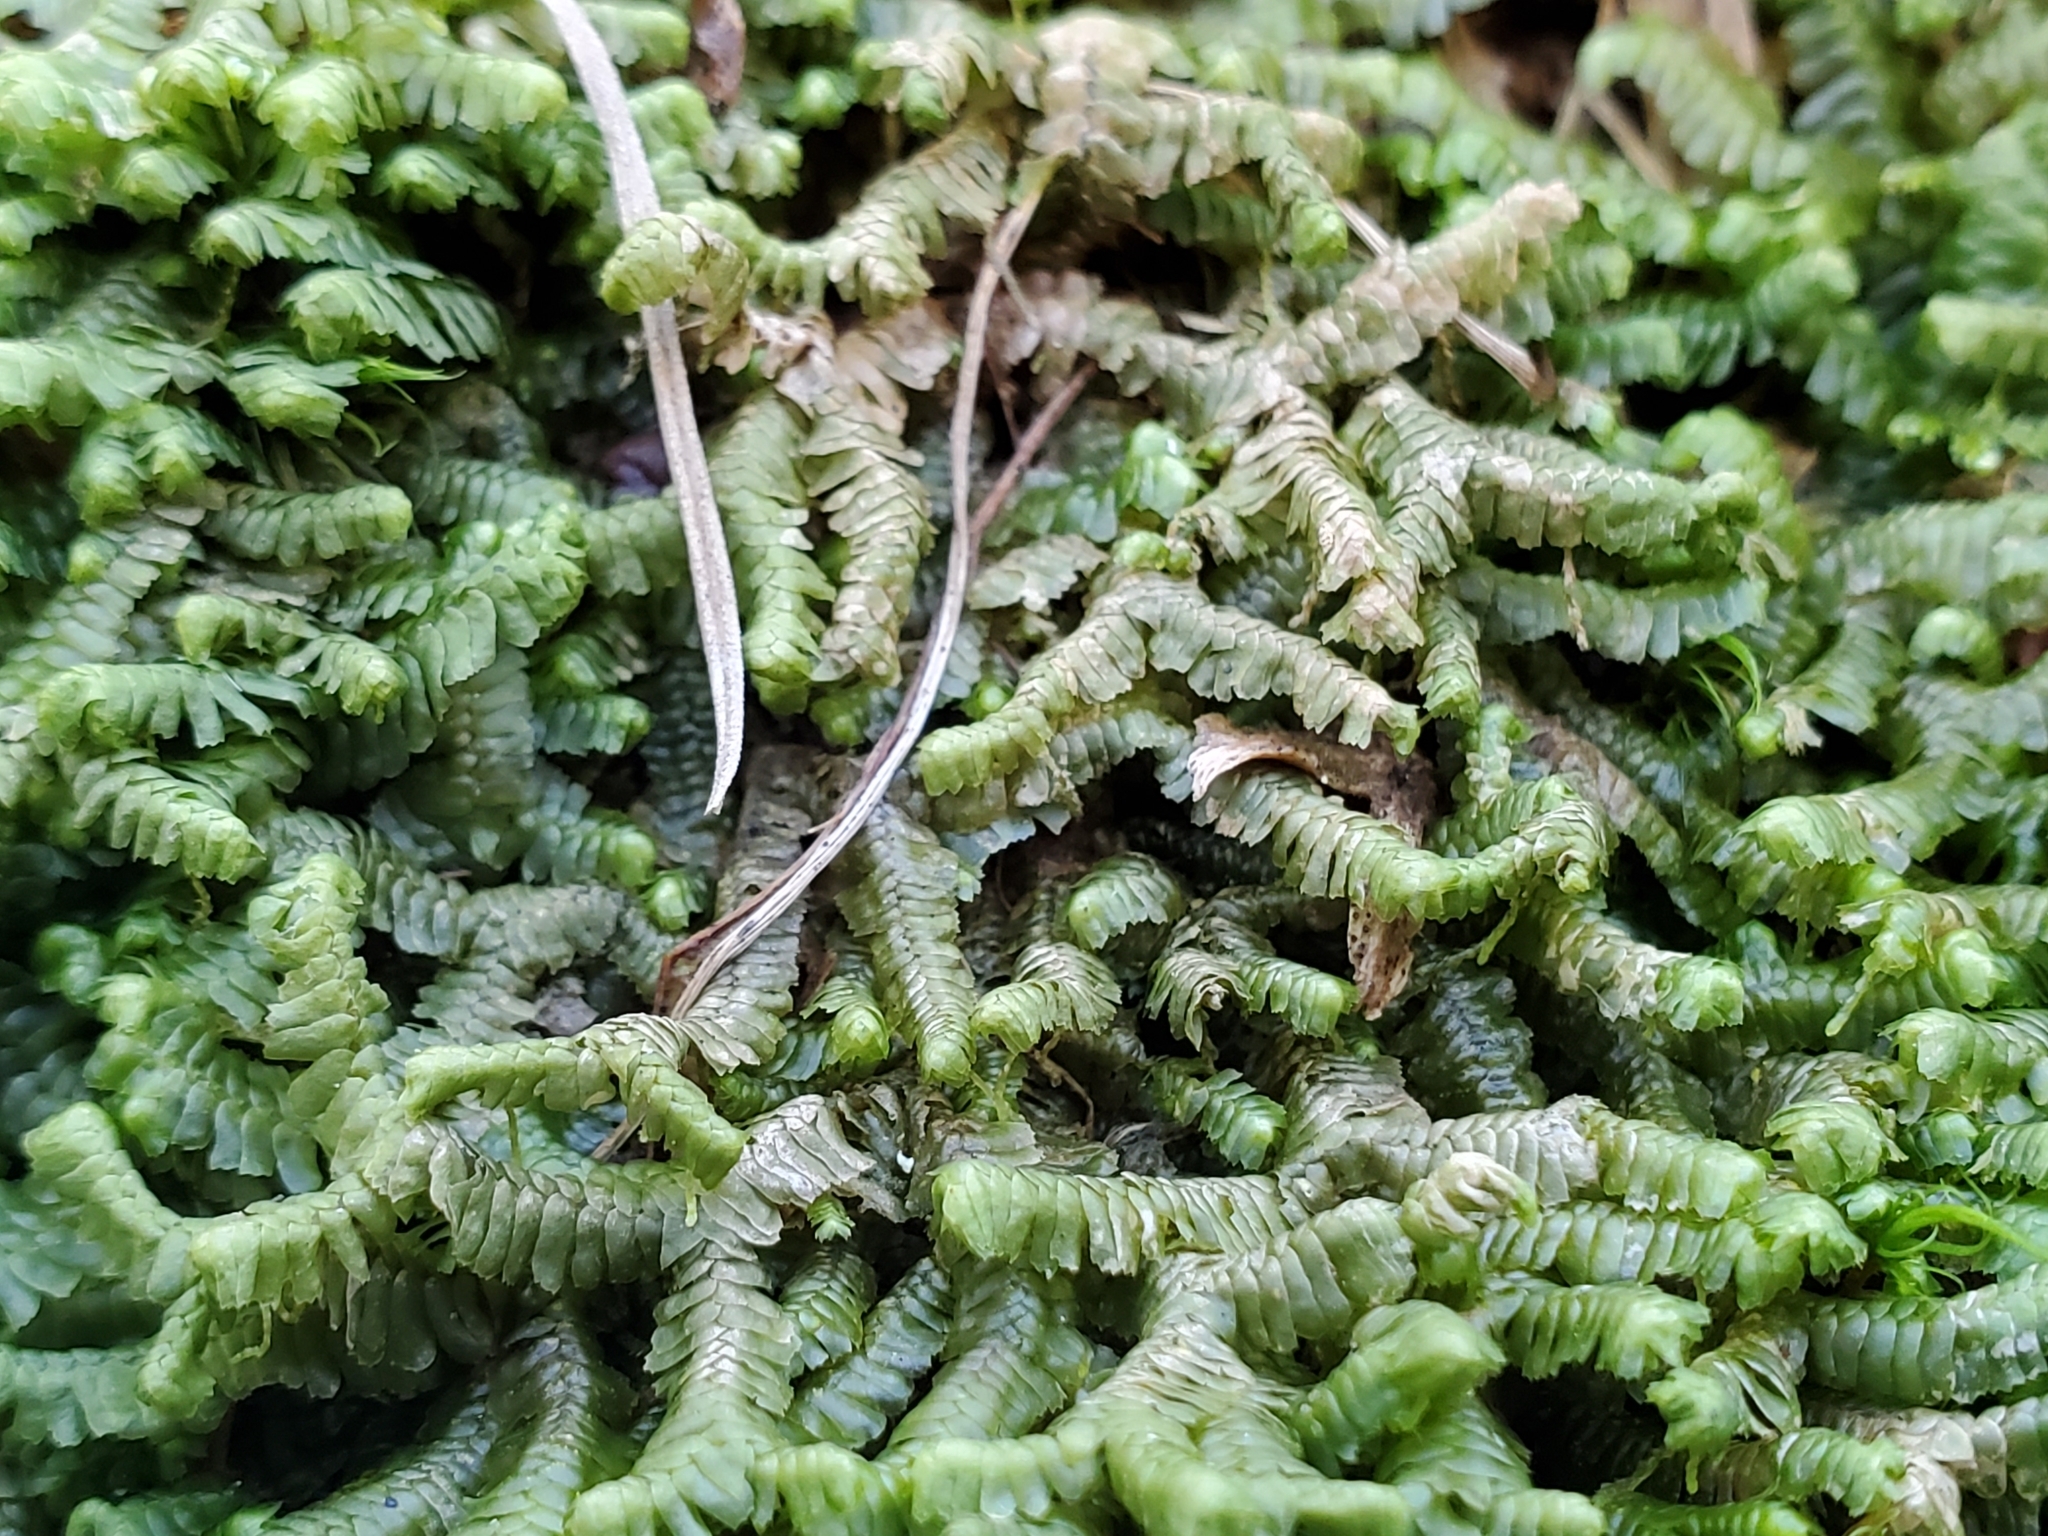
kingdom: Plantae
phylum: Marchantiophyta
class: Jungermanniopsida
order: Jungermanniales
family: Lepidoziaceae
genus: Bazzania
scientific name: Bazzania trilobata
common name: Three-lobed whipwort
